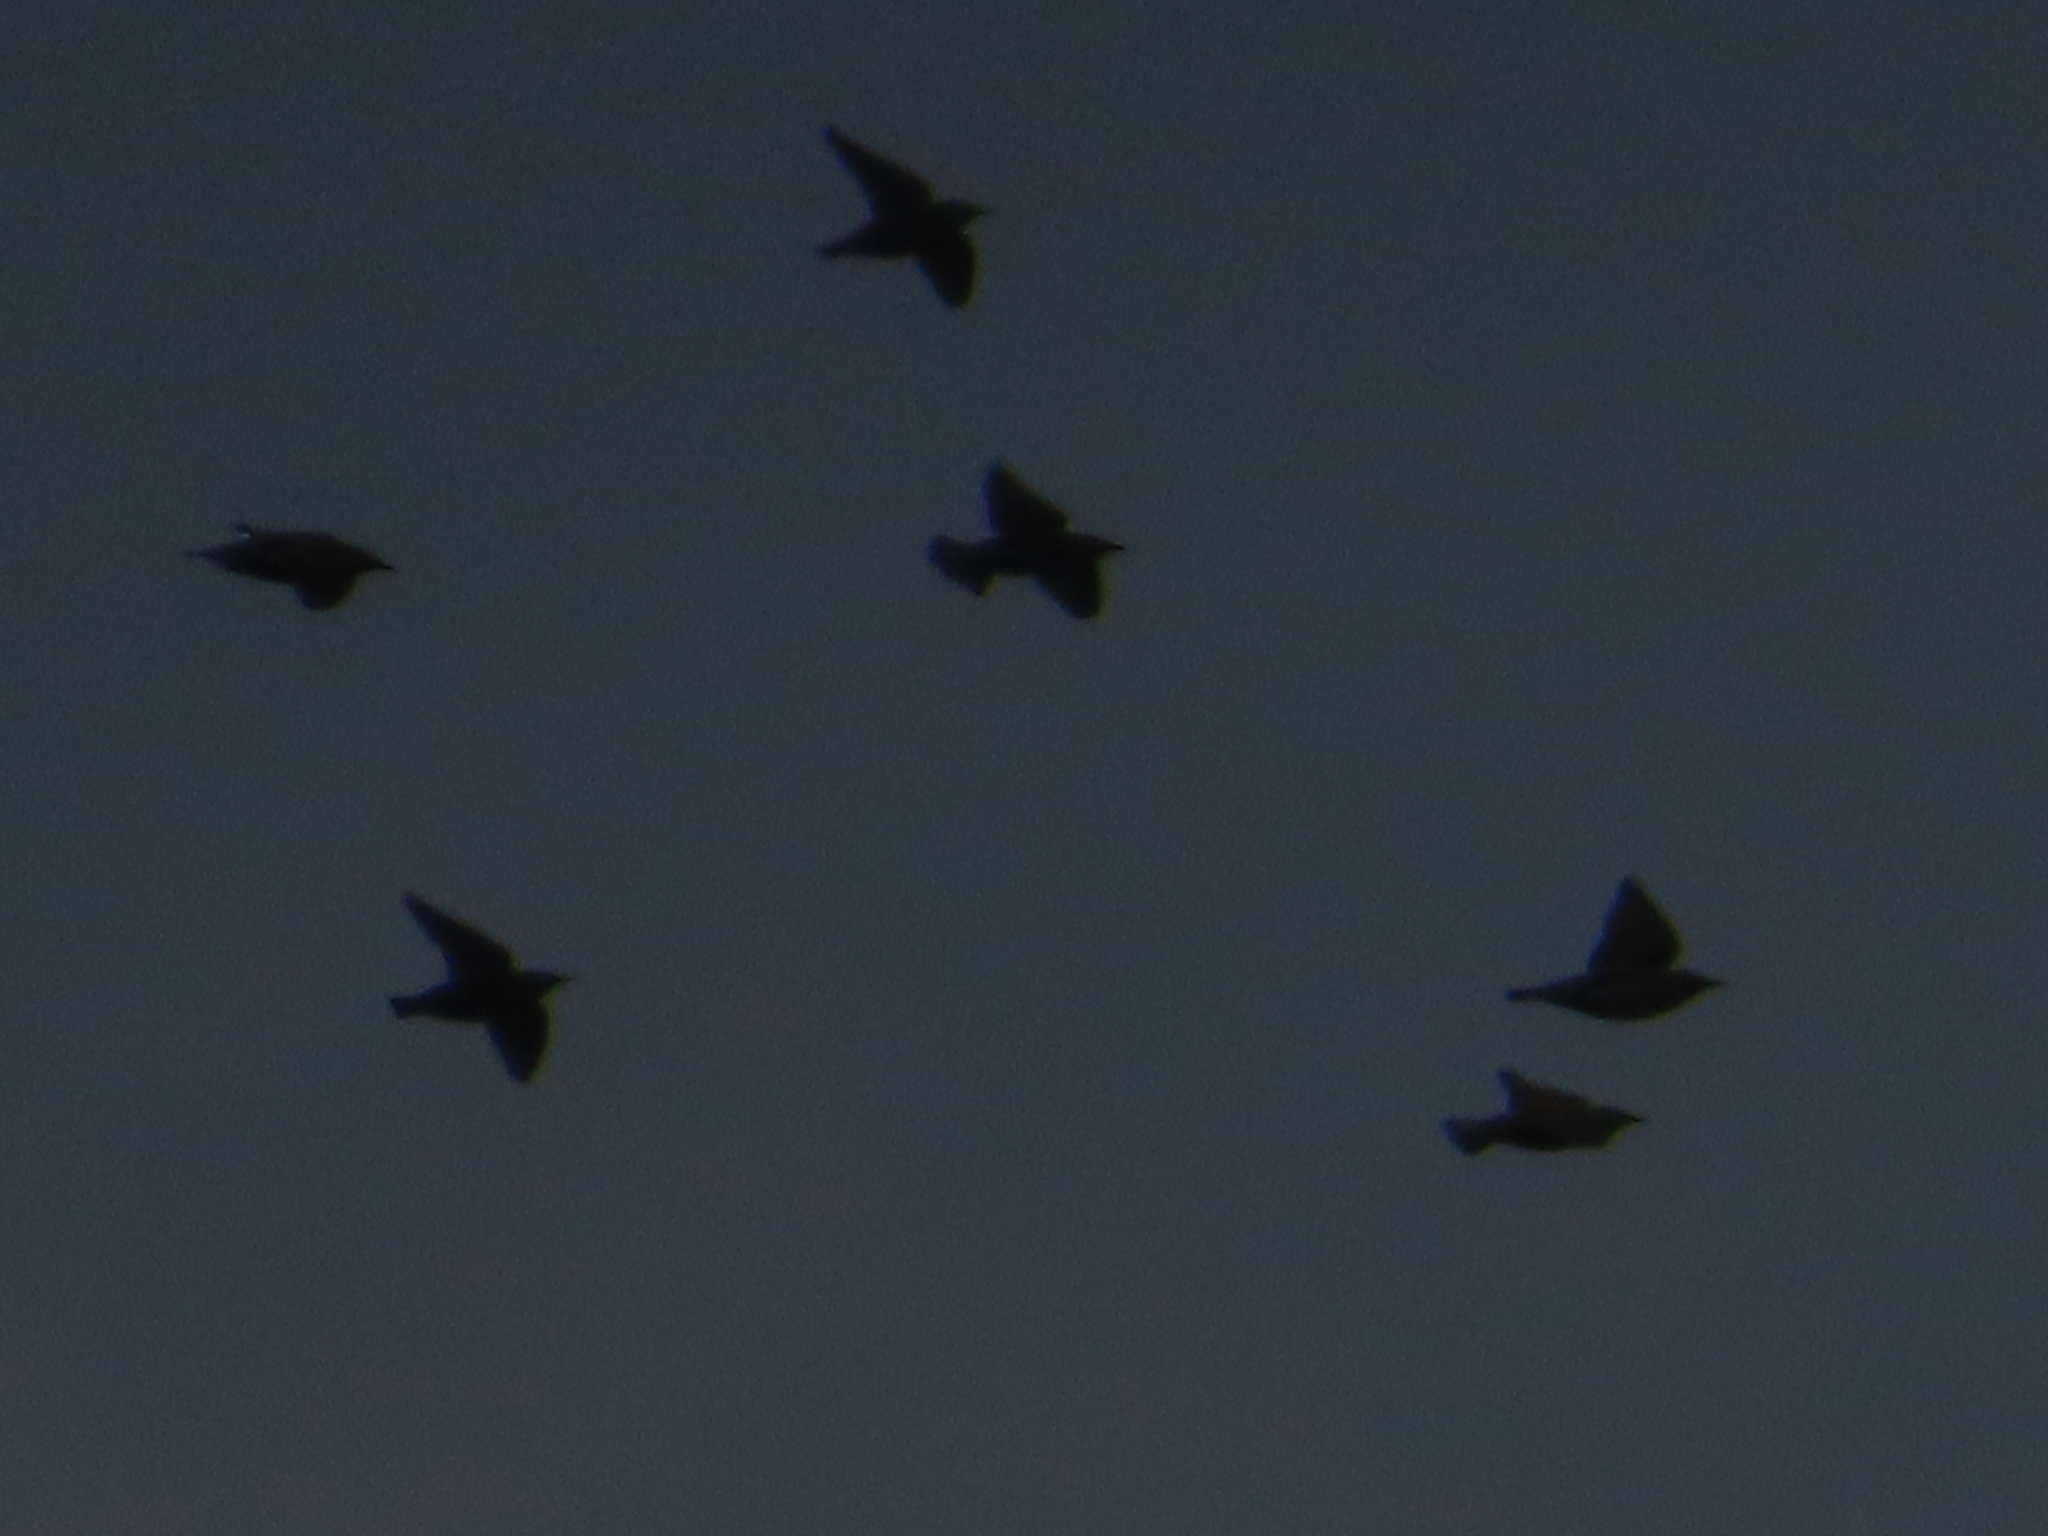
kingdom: Animalia
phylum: Chordata
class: Aves
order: Passeriformes
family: Sturnidae
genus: Sturnus
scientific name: Sturnus vulgaris
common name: Common starling
